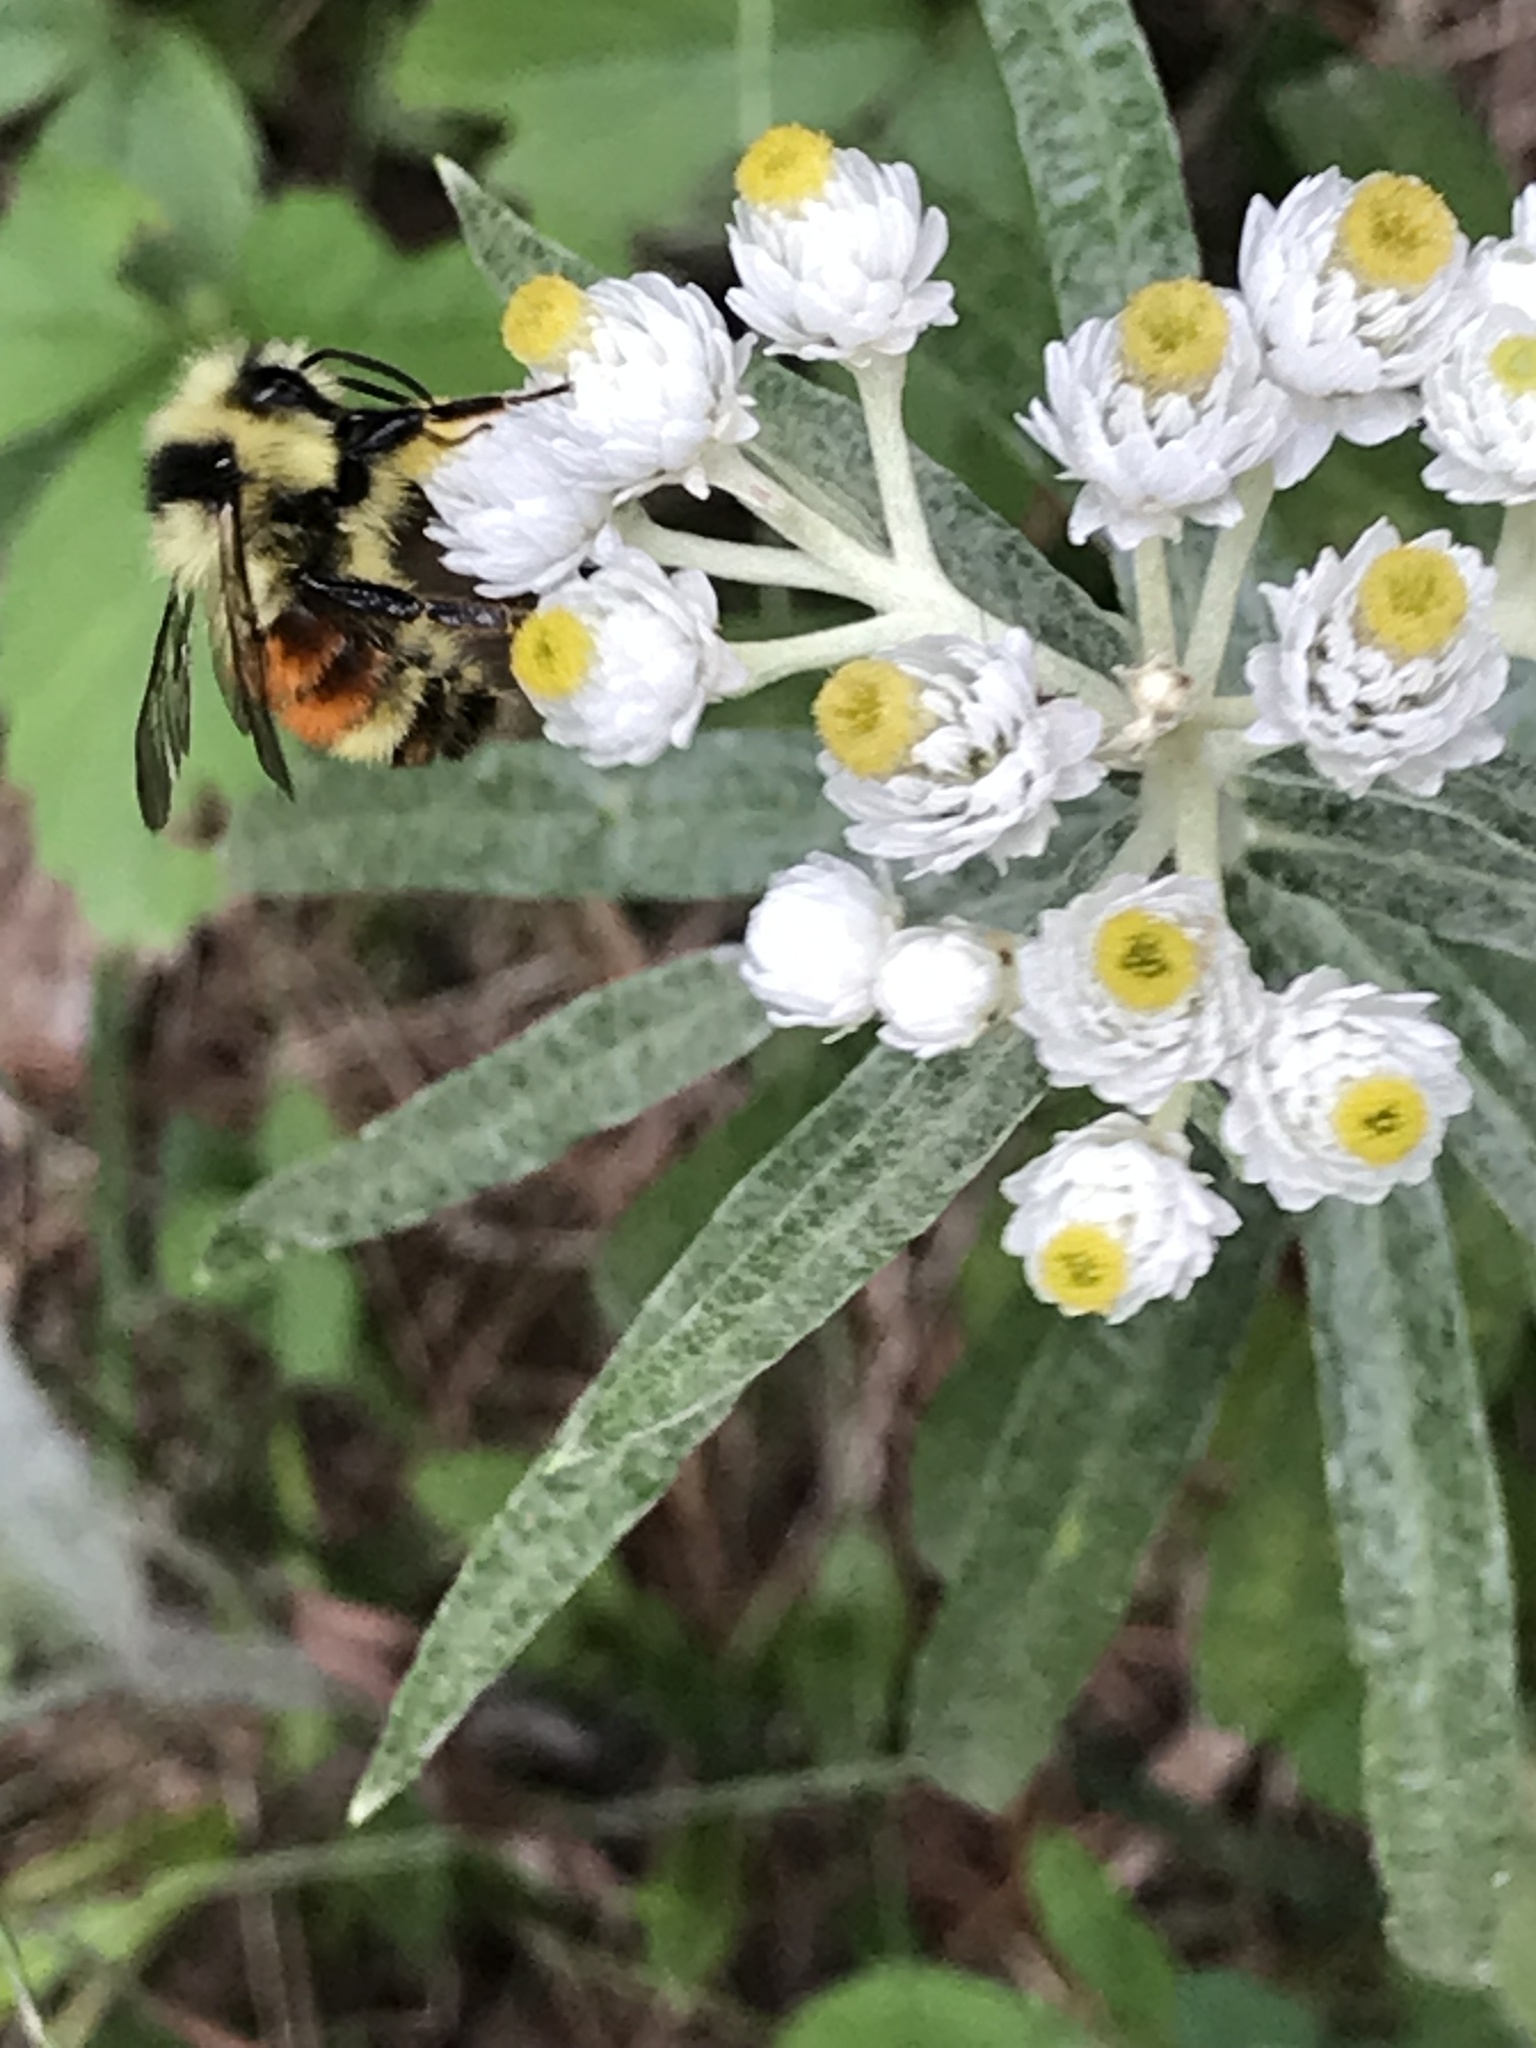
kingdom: Animalia
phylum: Arthropoda
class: Insecta
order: Hymenoptera
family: Apidae
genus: Bombus
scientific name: Bombus ternarius
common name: Tri-colored bumble bee
